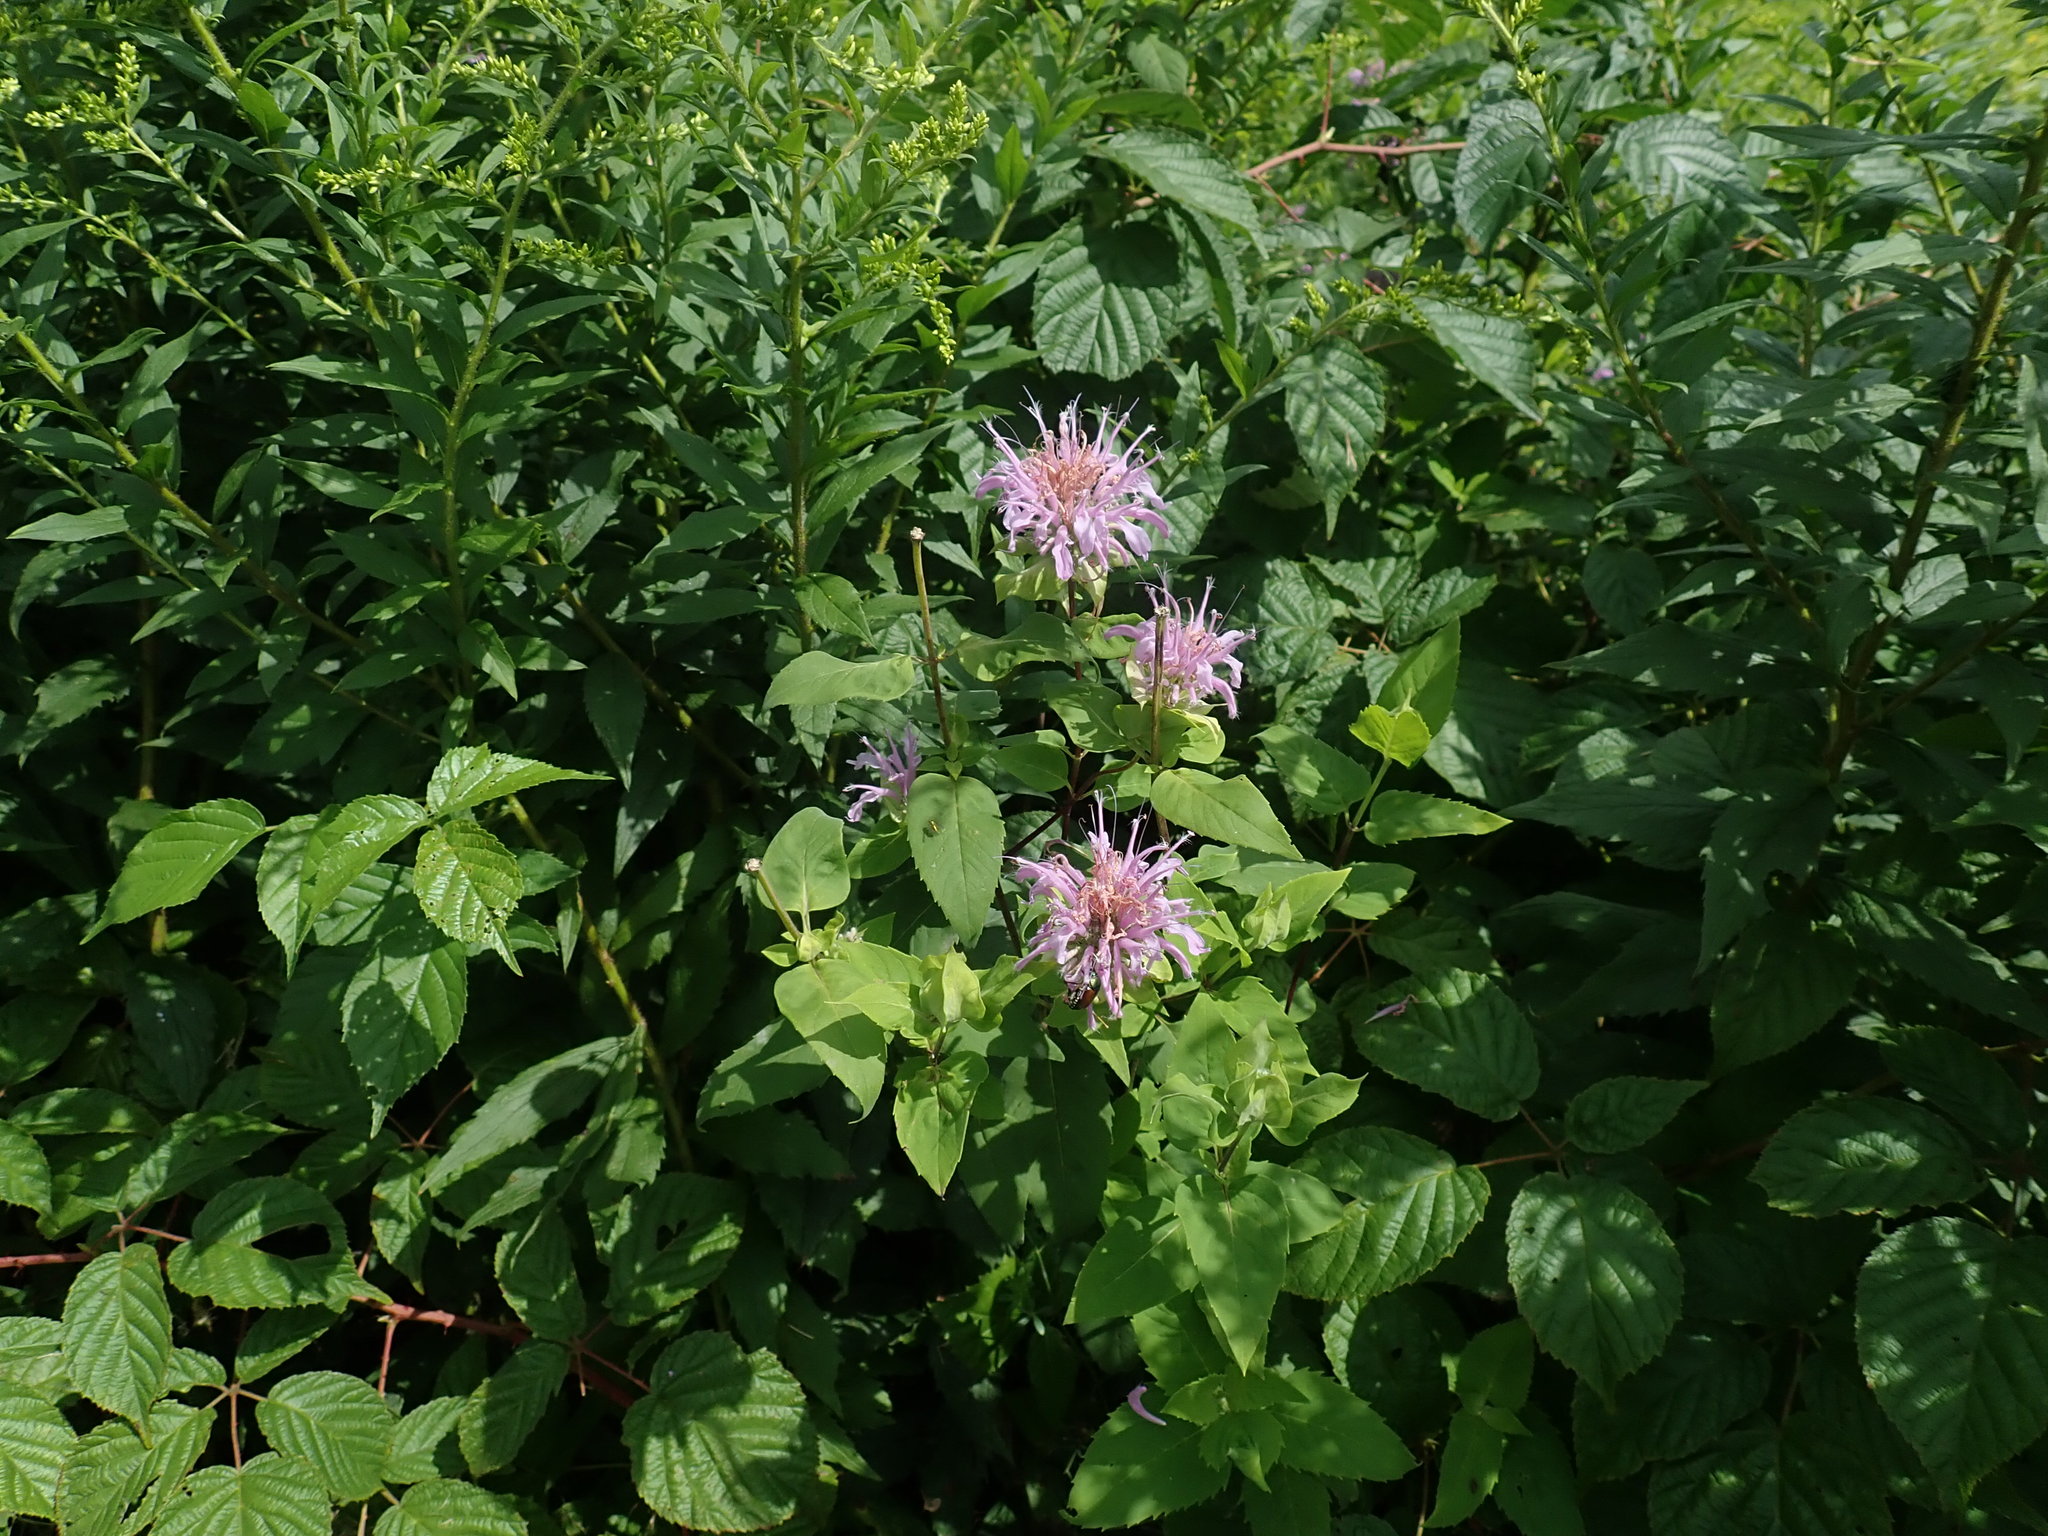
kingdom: Plantae
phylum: Tracheophyta
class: Magnoliopsida
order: Lamiales
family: Lamiaceae
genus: Monarda
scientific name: Monarda fistulosa
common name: Purple beebalm
